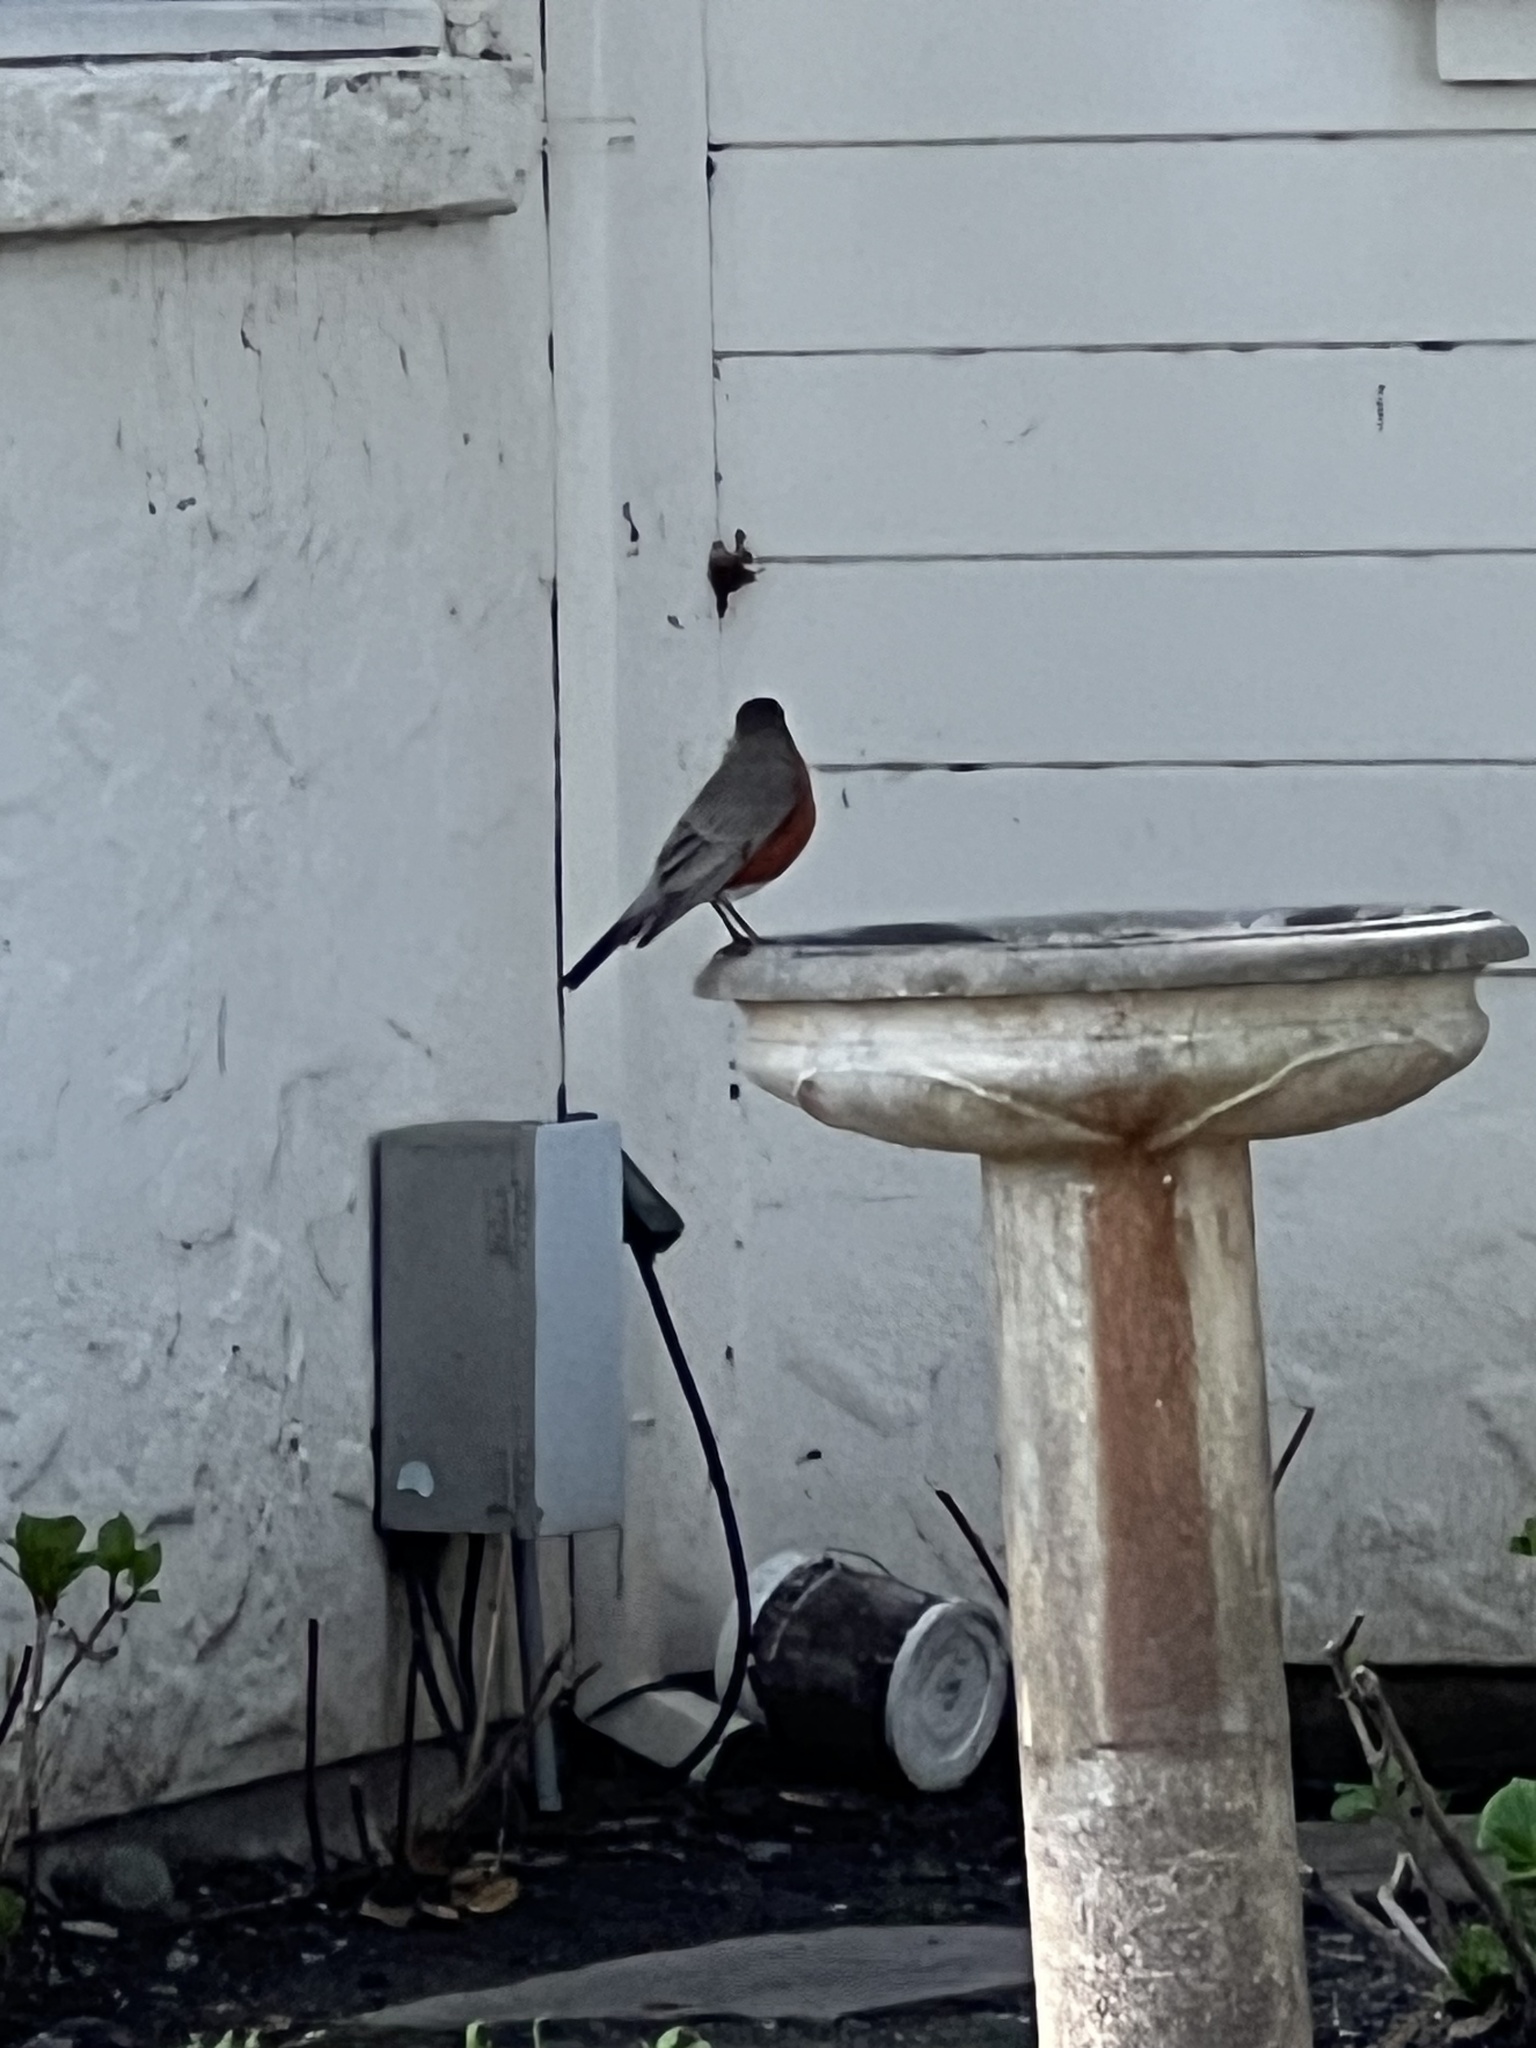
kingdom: Animalia
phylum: Chordata
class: Aves
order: Passeriformes
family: Turdidae
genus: Turdus
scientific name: Turdus migratorius
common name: American robin
